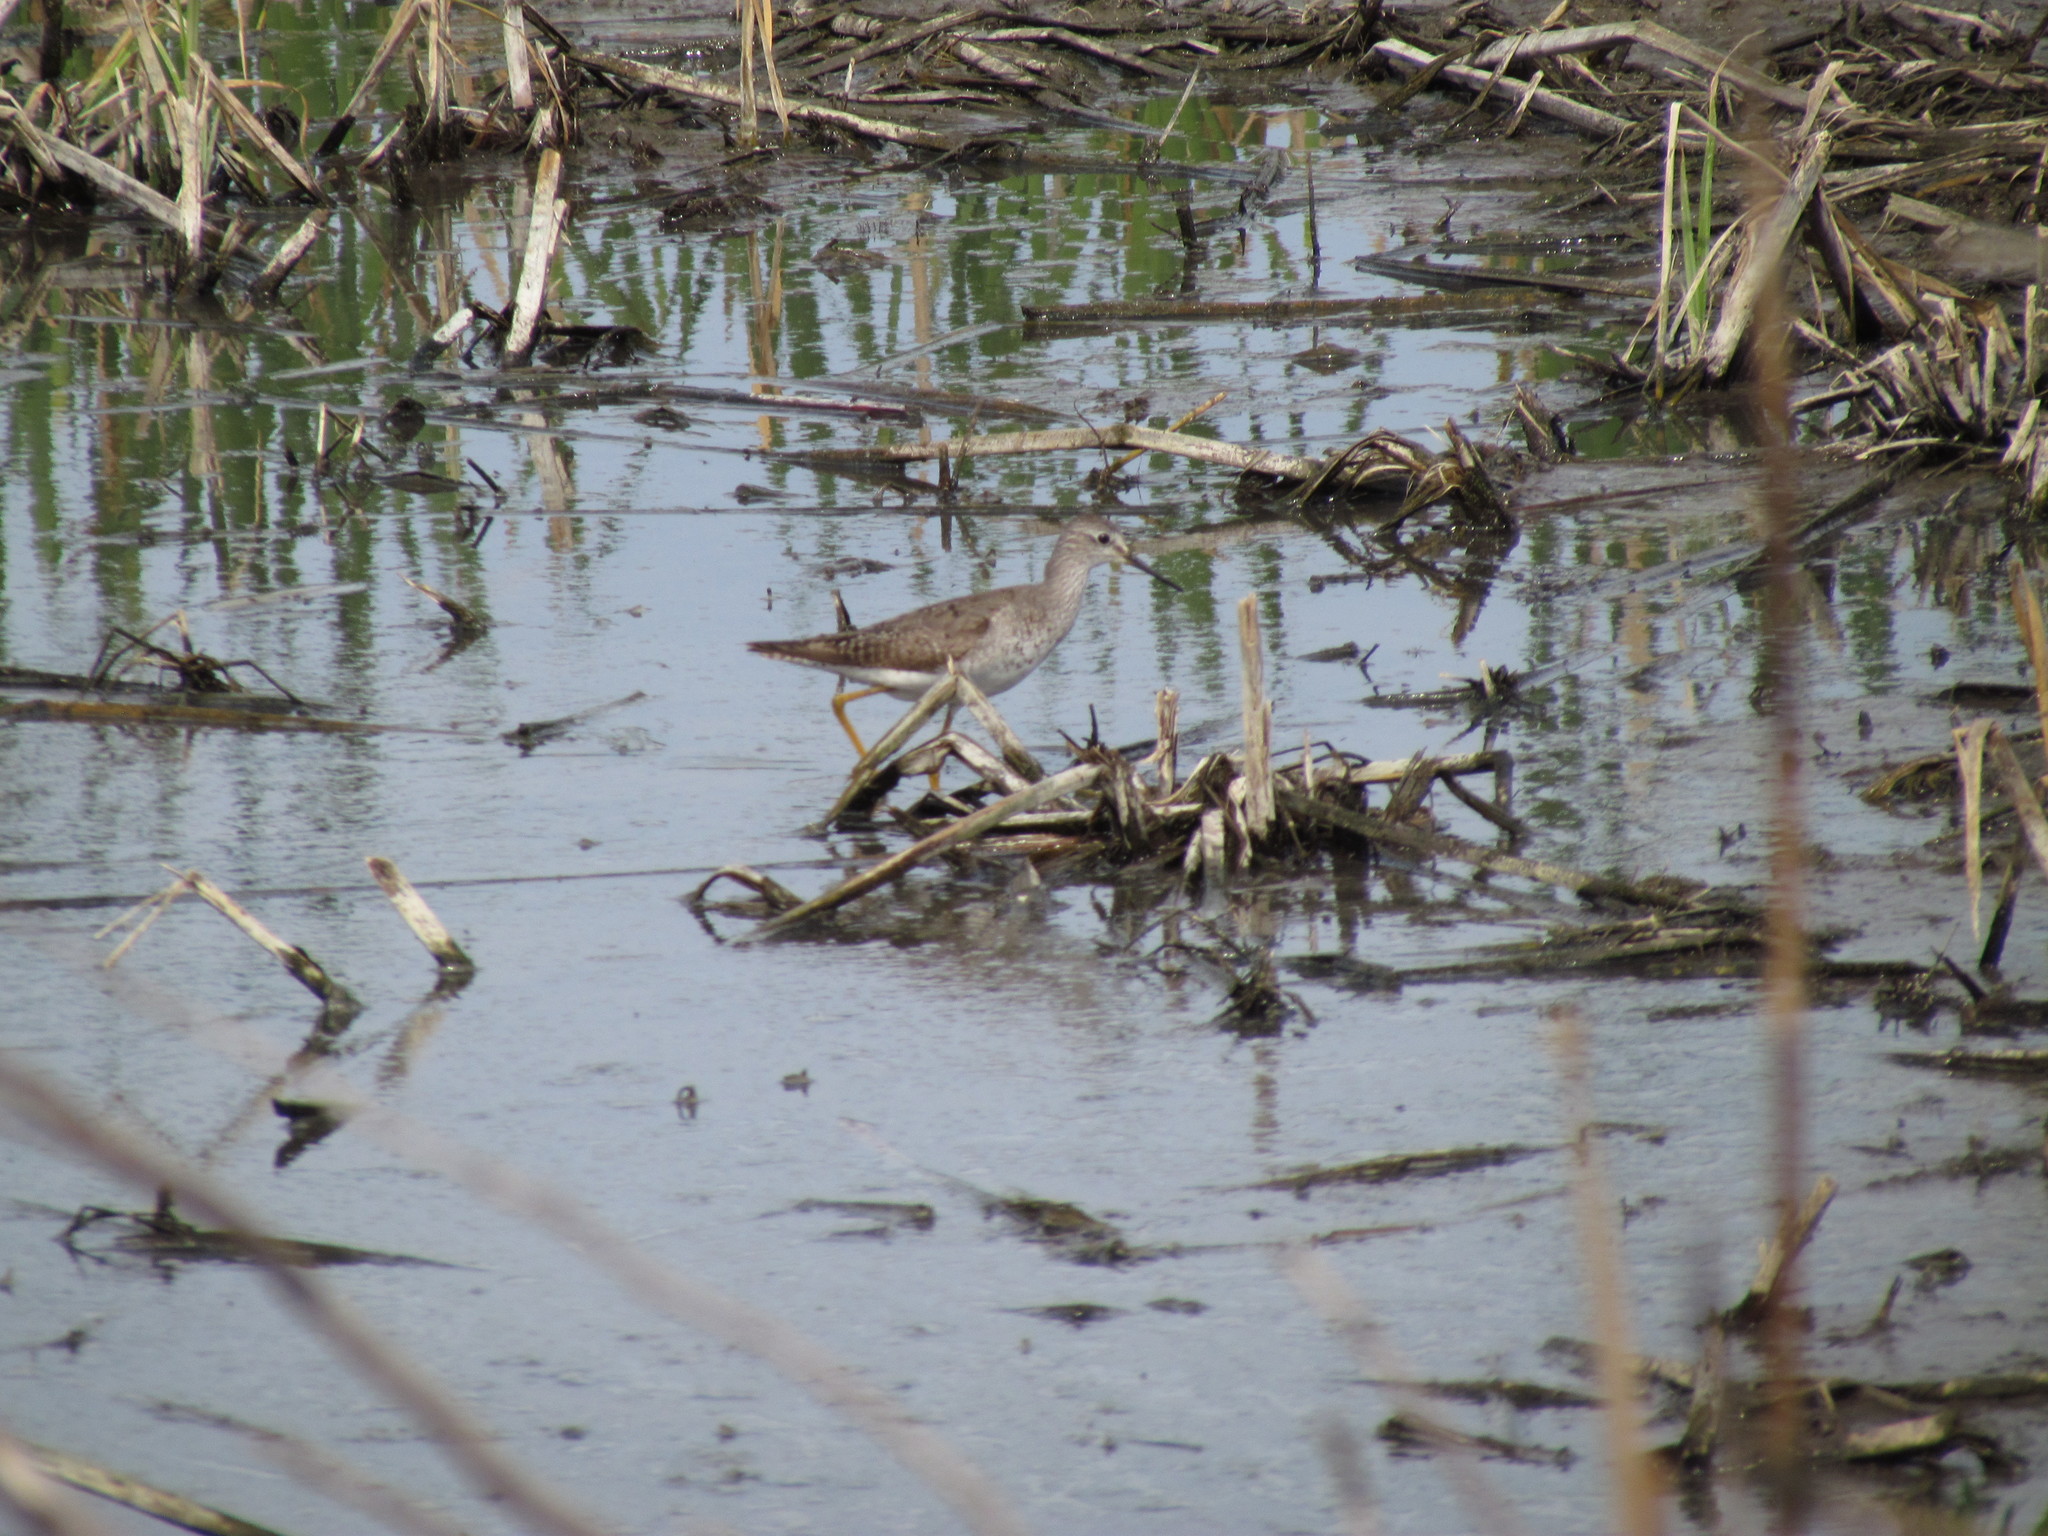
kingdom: Animalia
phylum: Chordata
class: Aves
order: Charadriiformes
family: Scolopacidae
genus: Tringa
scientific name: Tringa flavipes
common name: Lesser yellowlegs
